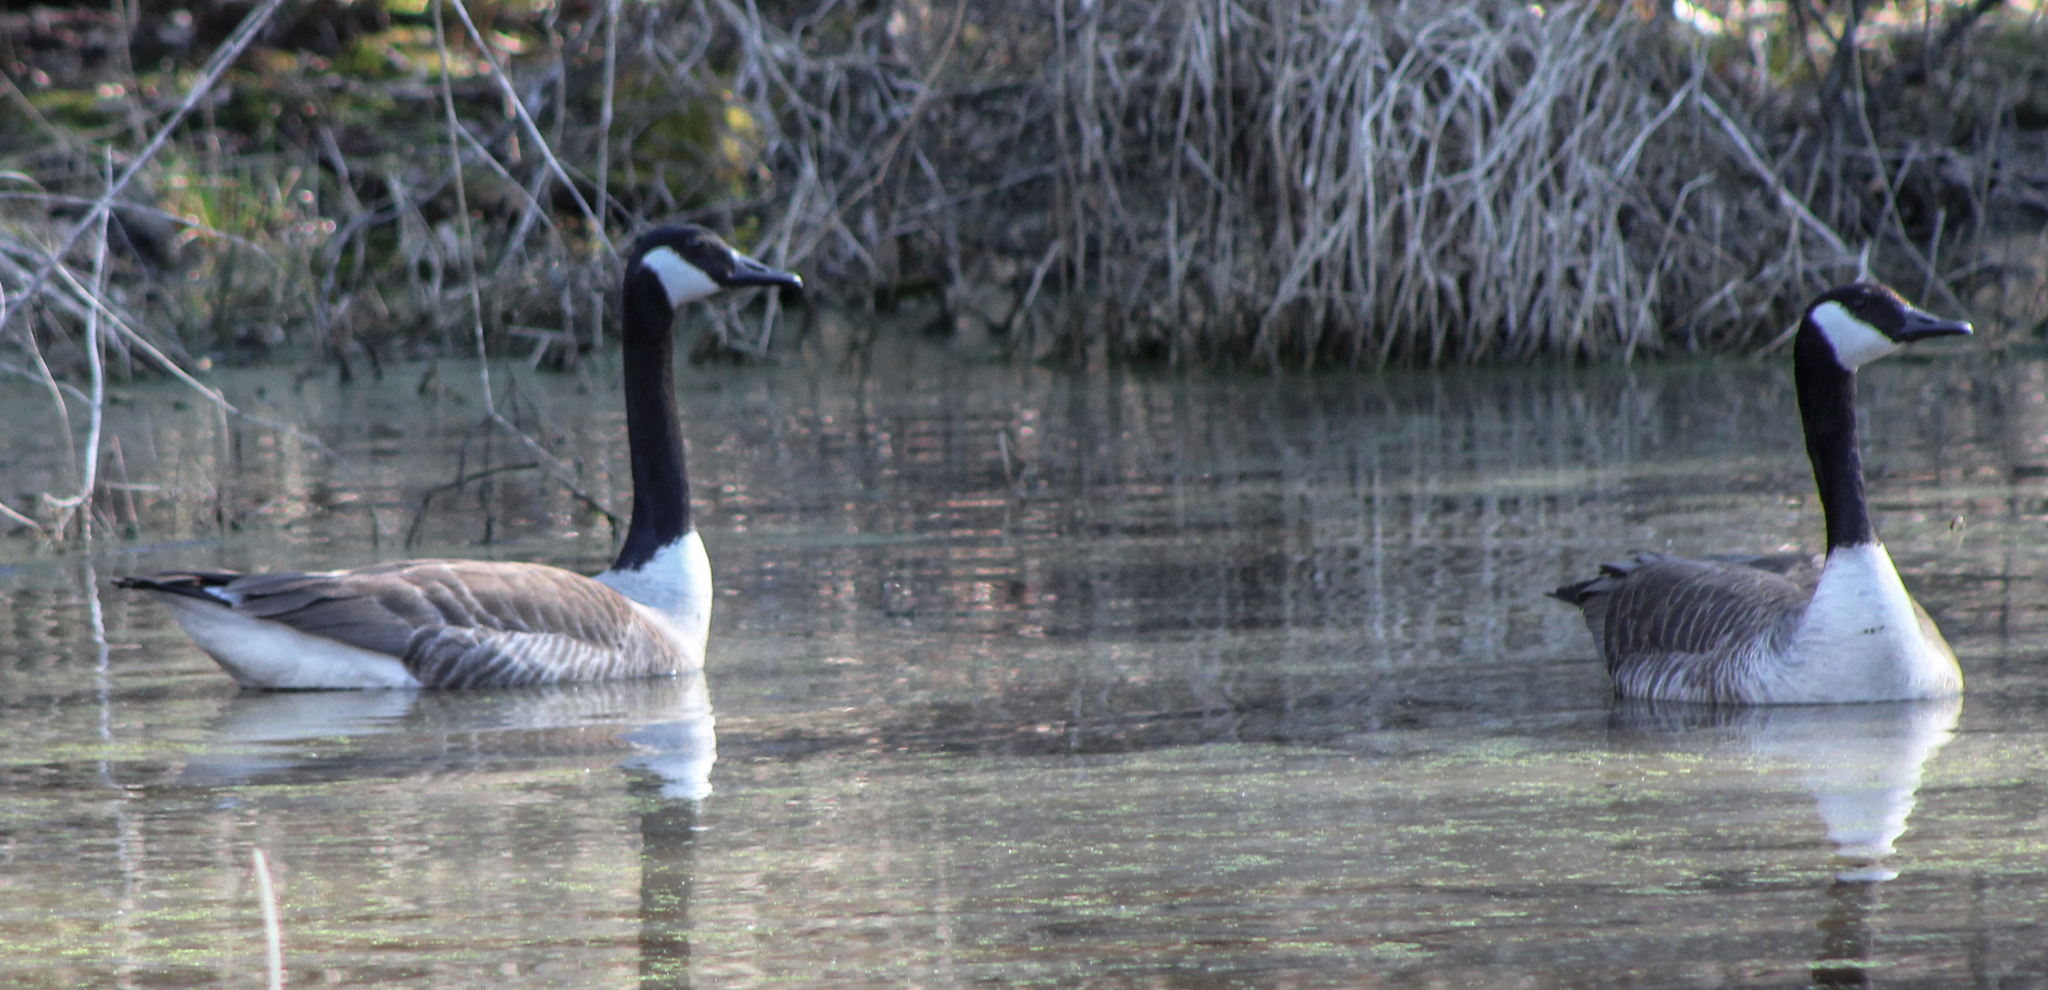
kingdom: Animalia
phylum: Chordata
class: Aves
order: Anseriformes
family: Anatidae
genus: Branta
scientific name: Branta canadensis
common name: Canada goose
